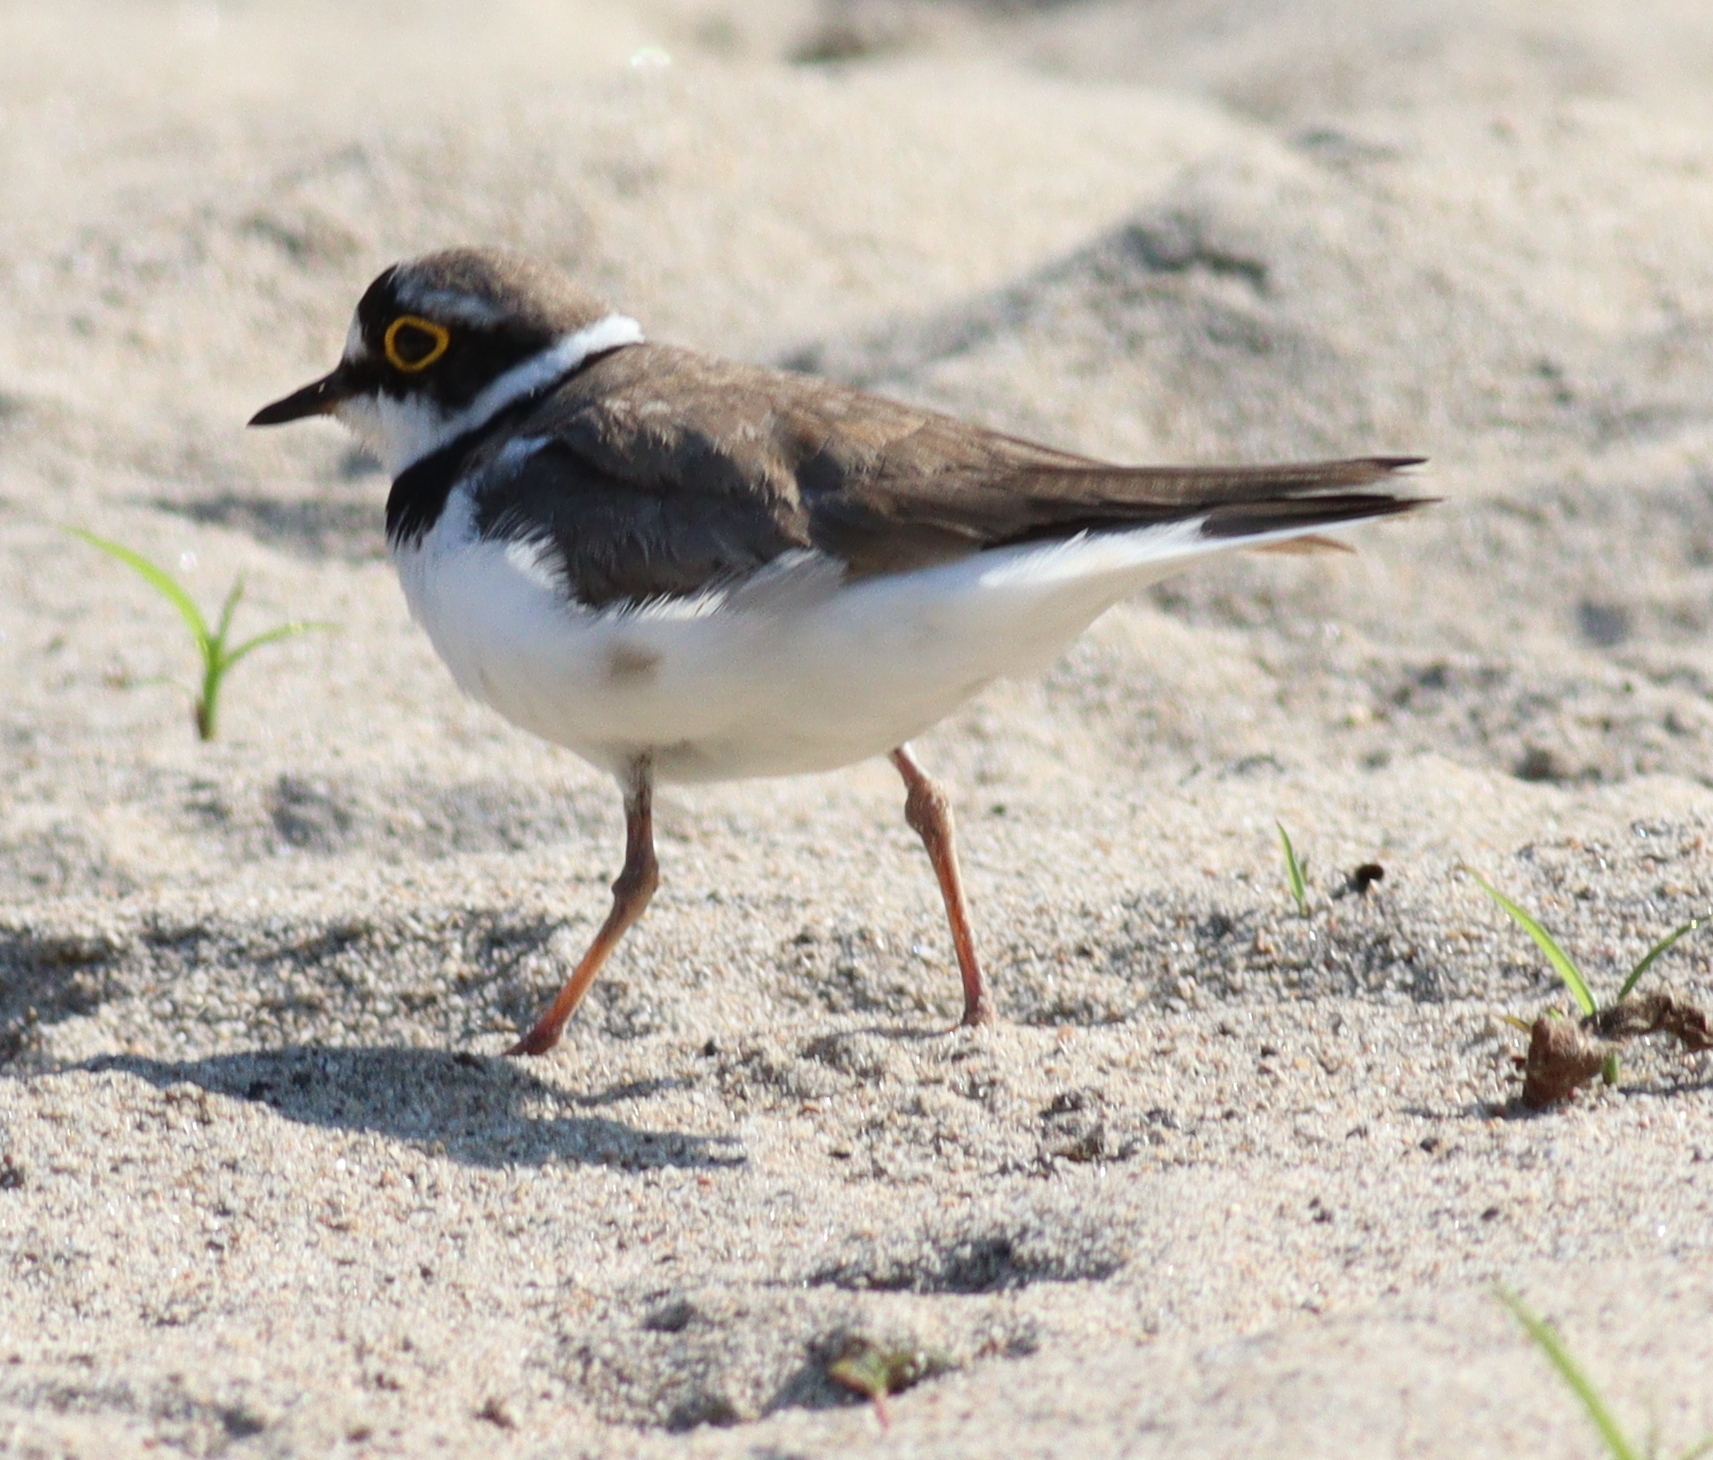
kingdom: Animalia
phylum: Chordata
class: Aves
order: Charadriiformes
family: Charadriidae
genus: Charadrius
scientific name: Charadrius dubius
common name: Little ringed plover
